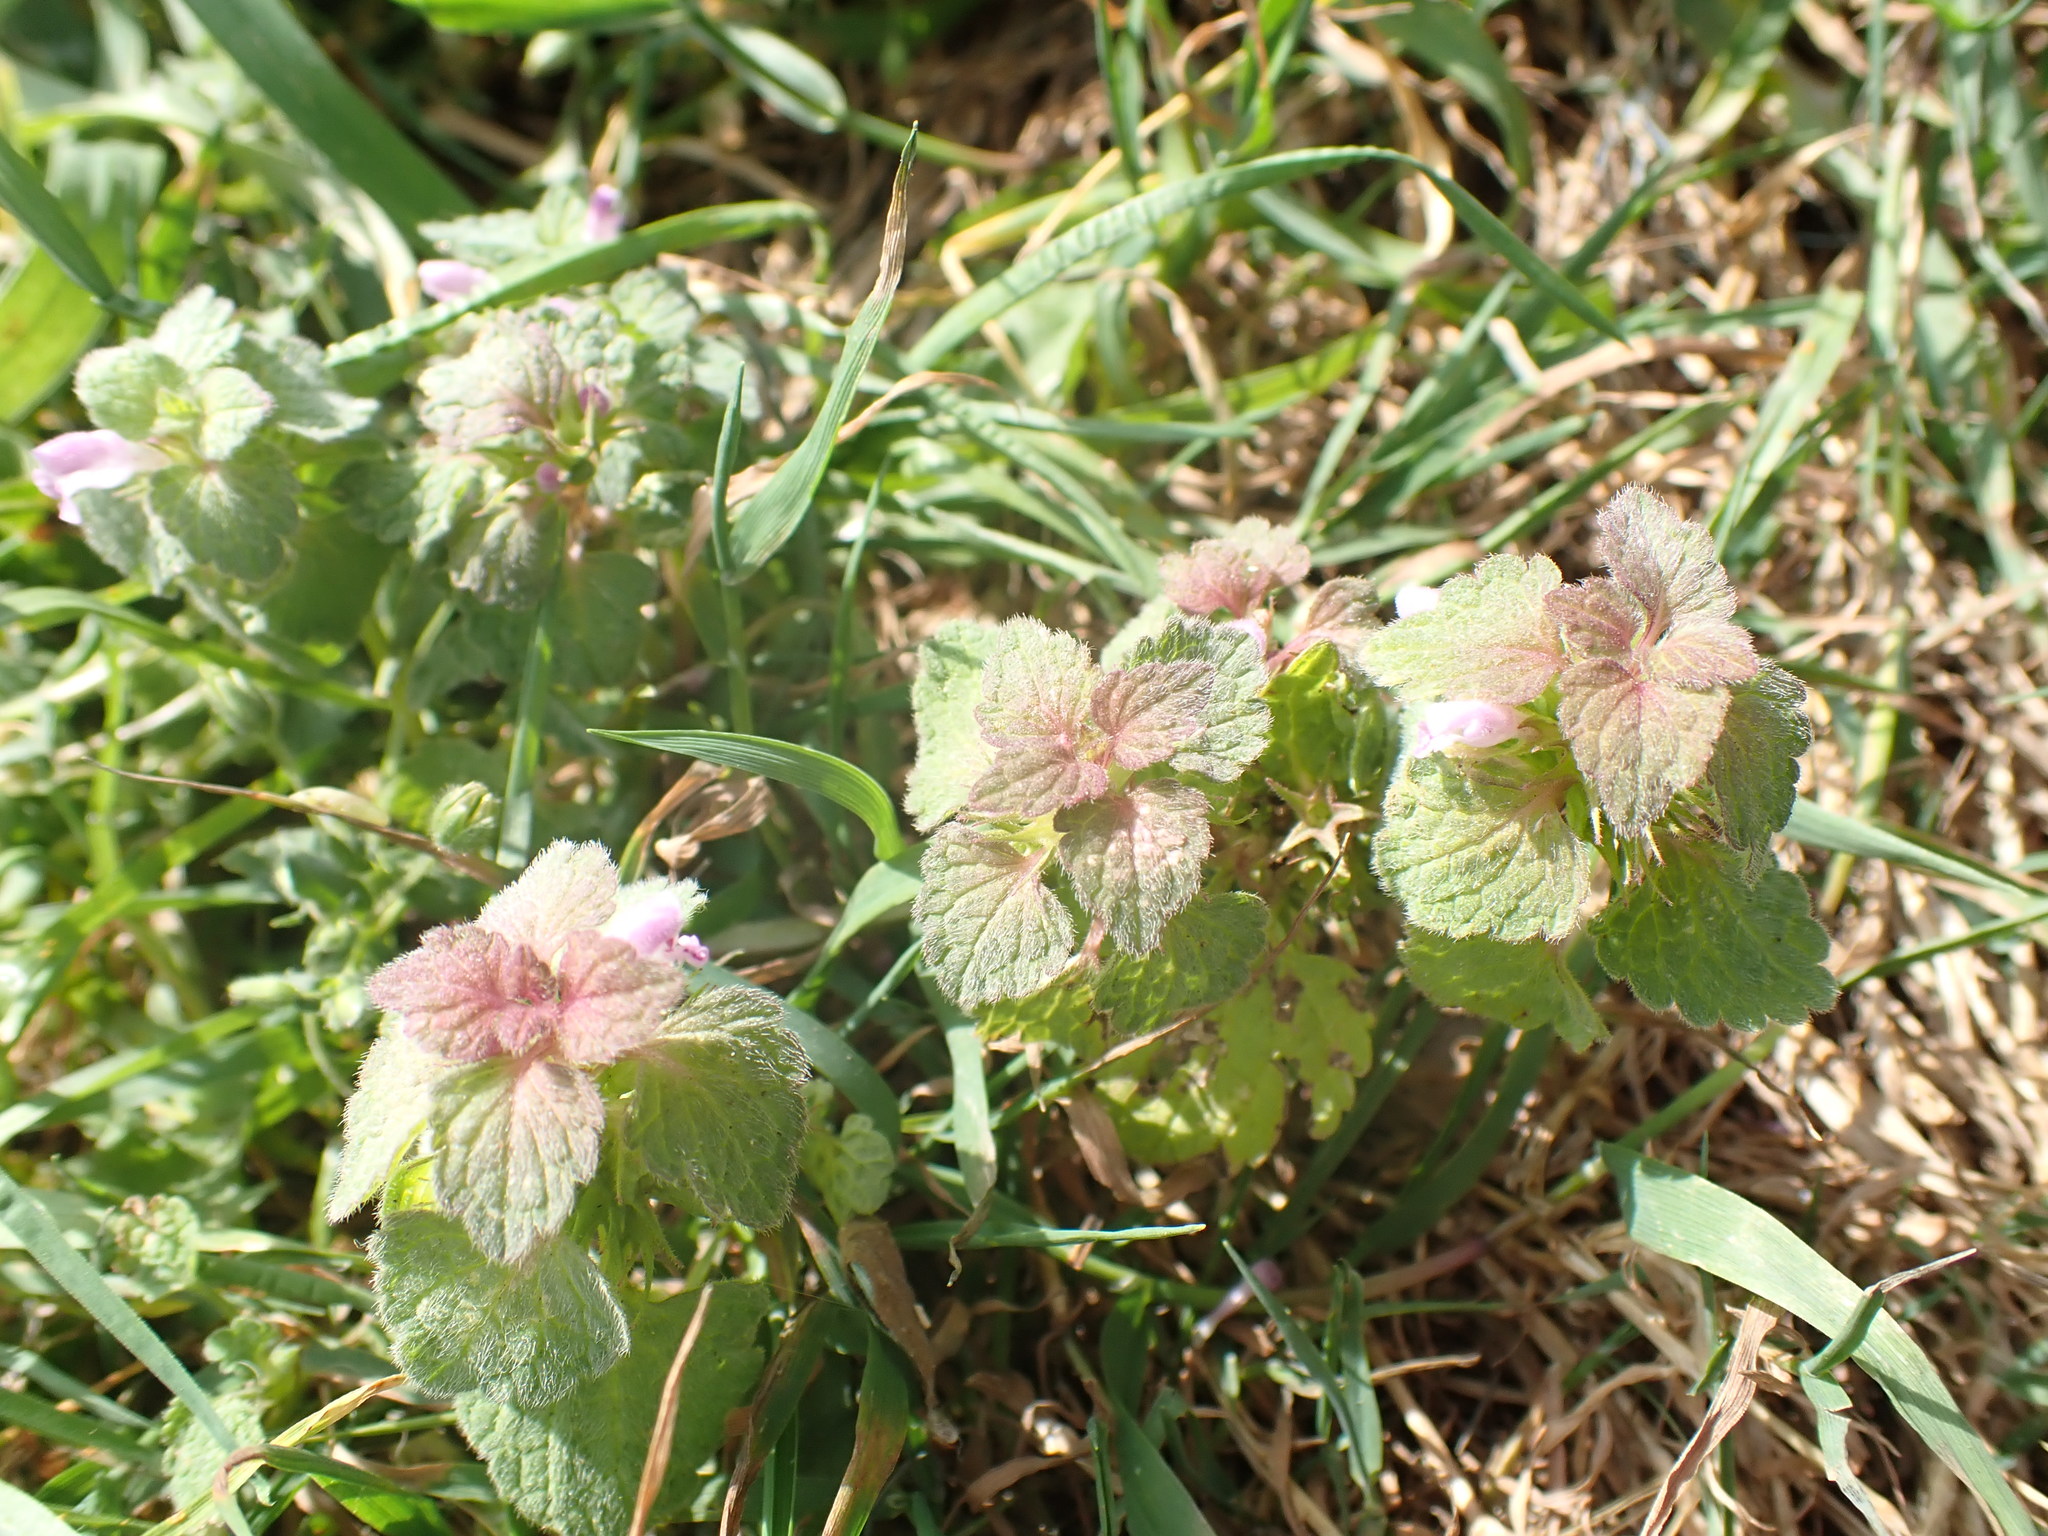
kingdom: Plantae
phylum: Tracheophyta
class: Magnoliopsida
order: Lamiales
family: Lamiaceae
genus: Lamium
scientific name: Lamium purpureum
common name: Red dead-nettle
